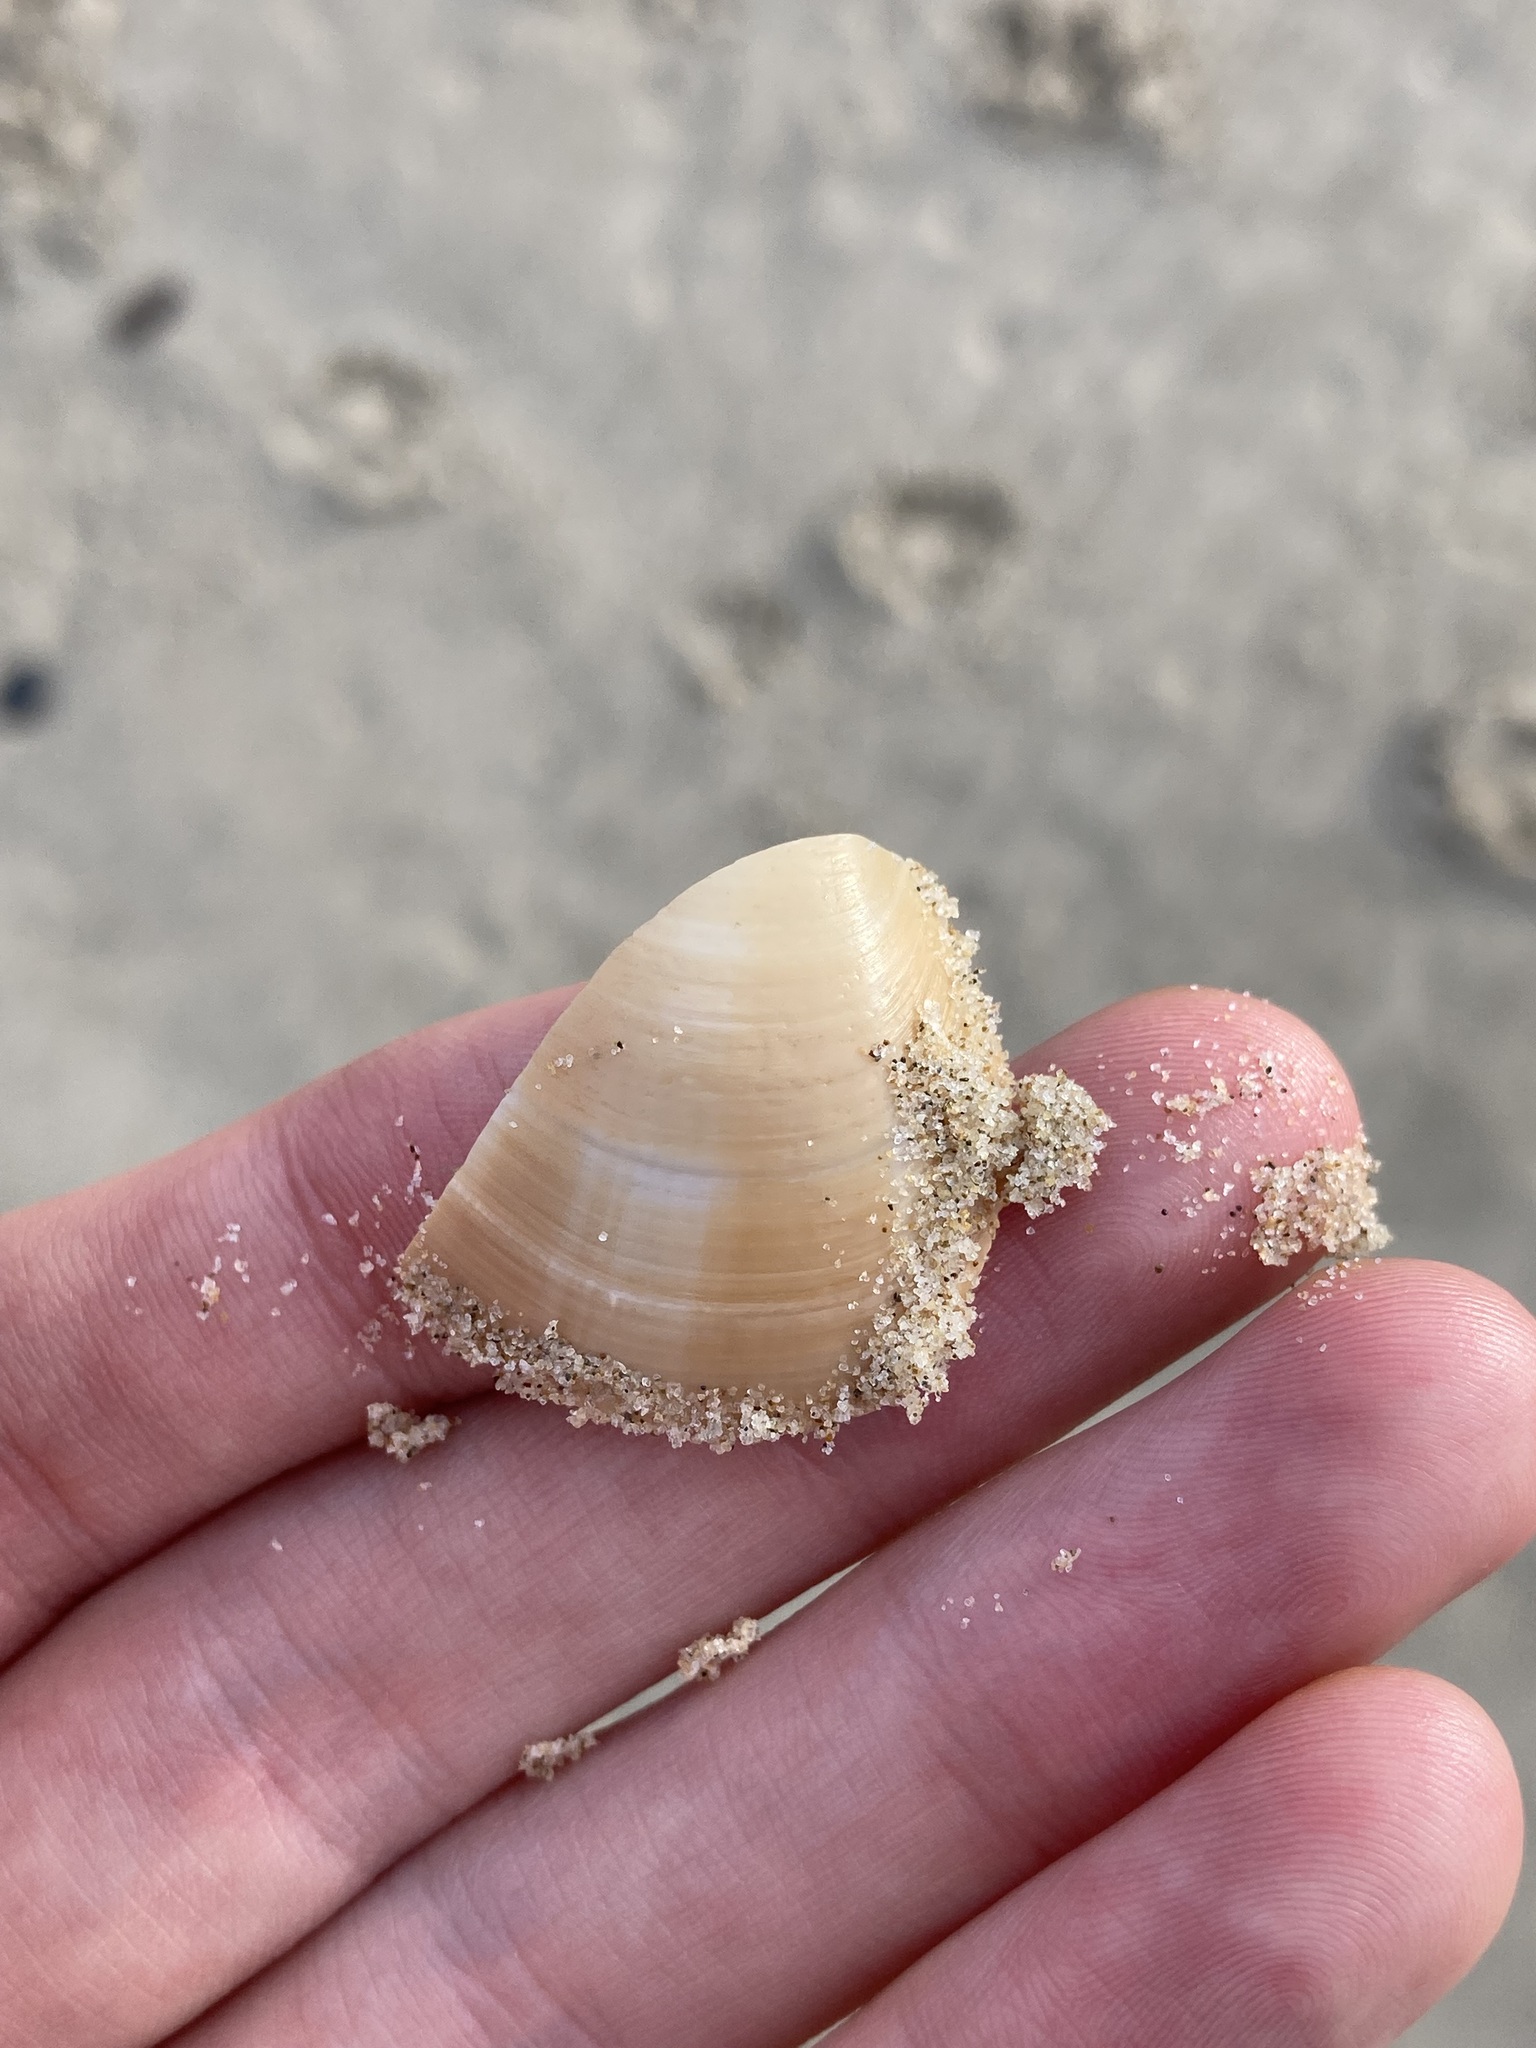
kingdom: Animalia
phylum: Mollusca
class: Bivalvia
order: Venerida
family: Veneridae
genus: Bassina
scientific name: Bassina pachyphylla
